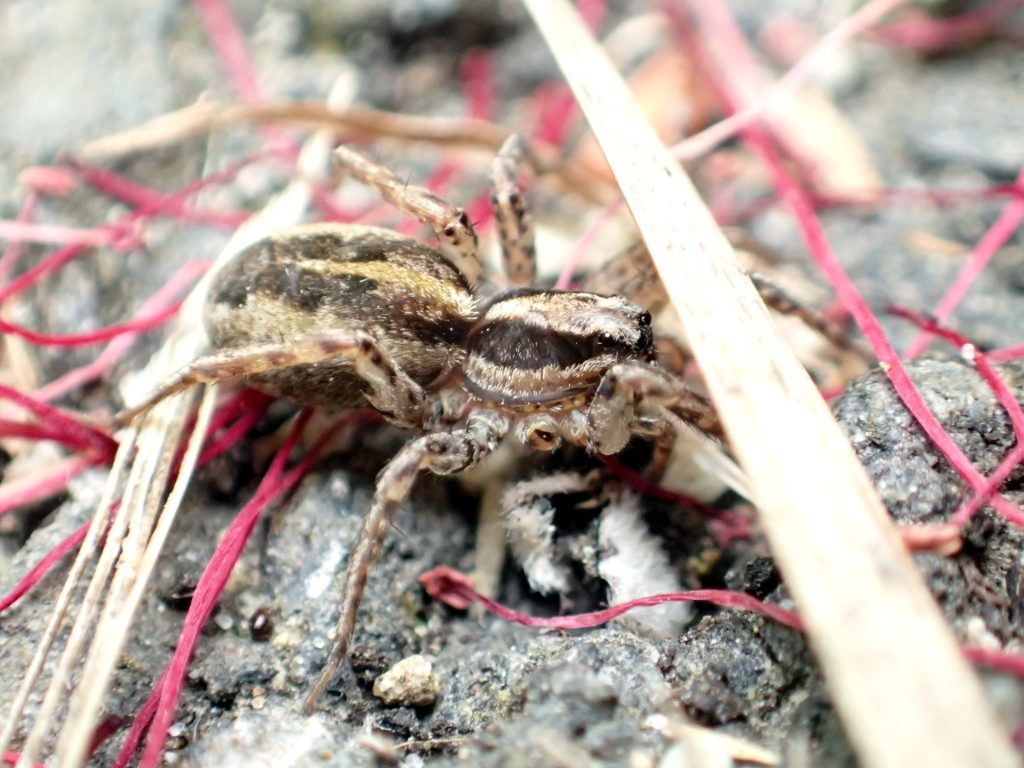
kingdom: Animalia
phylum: Arthropoda
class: Arachnida
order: Araneae
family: Lycosidae
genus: Anoteropsis
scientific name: Anoteropsis hilaris
